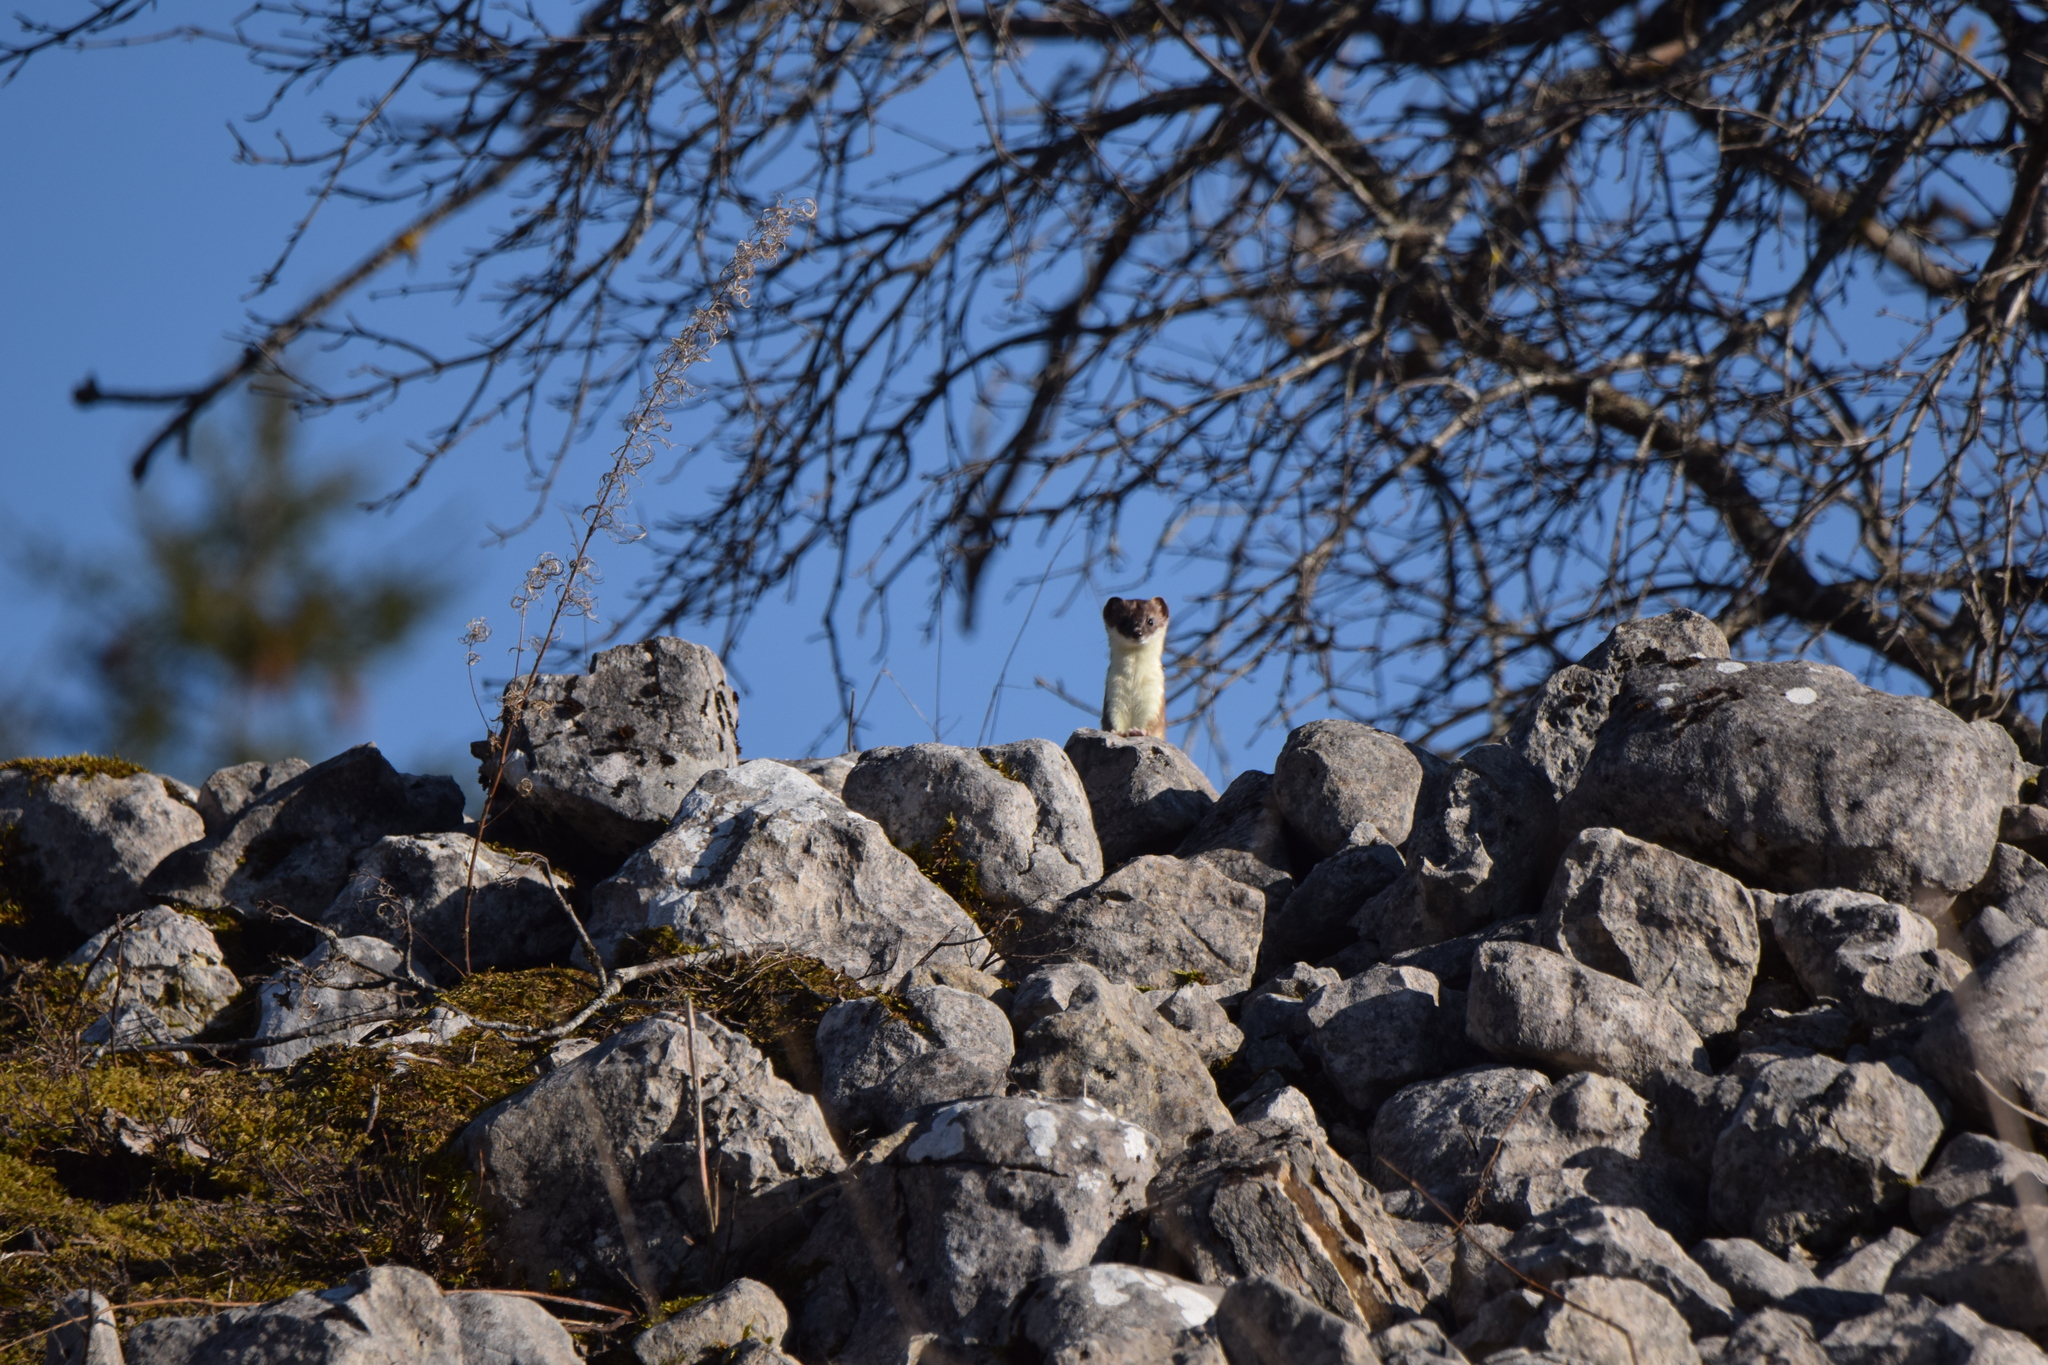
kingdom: Animalia
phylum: Chordata
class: Mammalia
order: Carnivora
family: Mustelidae
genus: Mustela
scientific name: Mustela erminea
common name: Stoat
